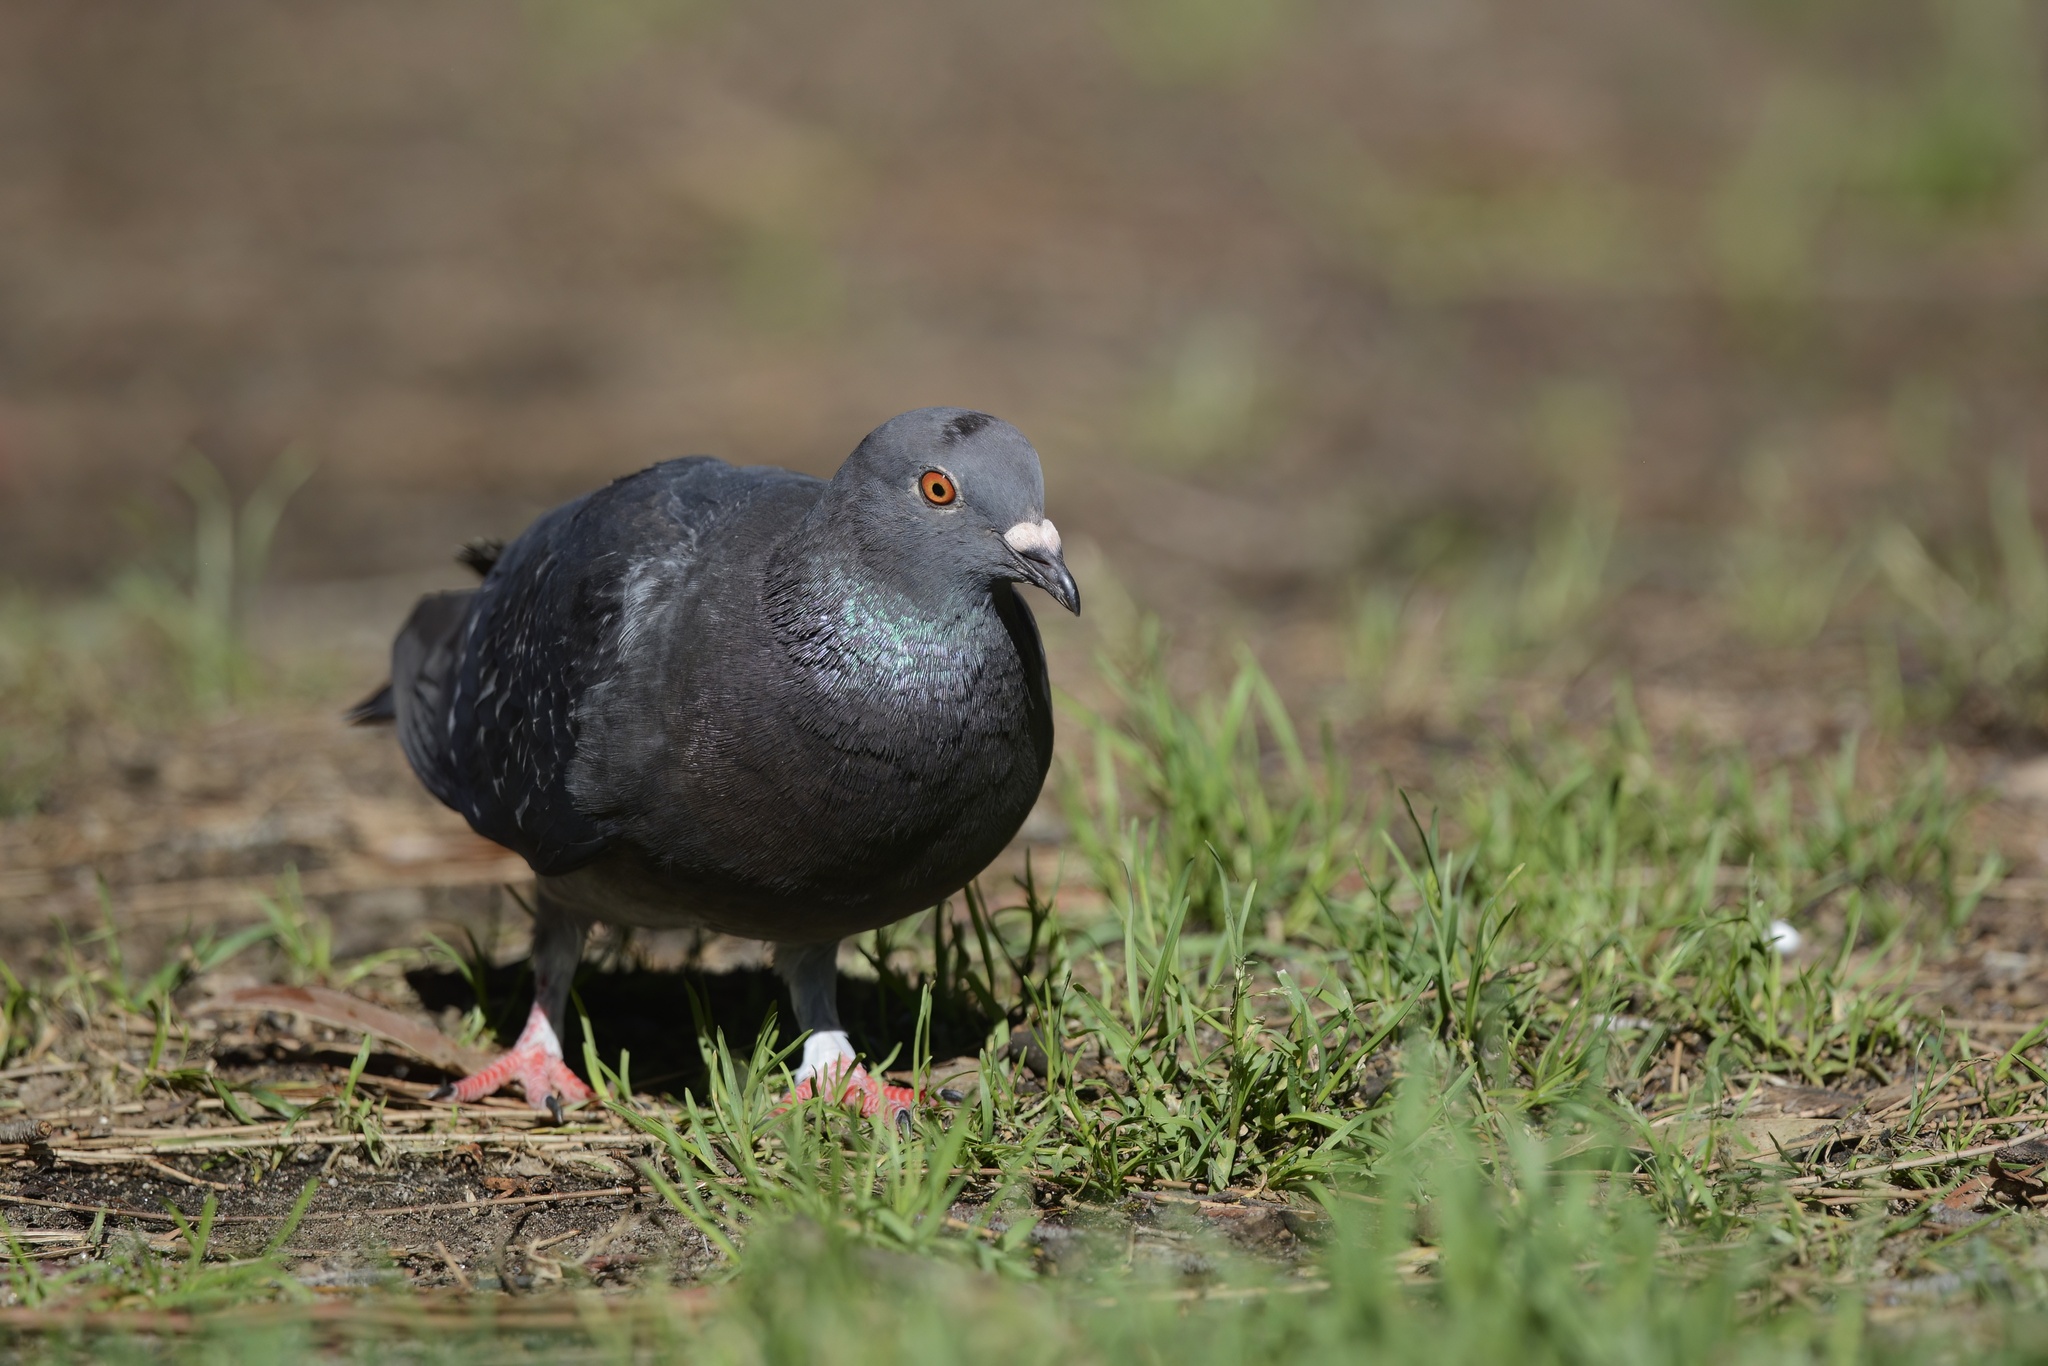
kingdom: Animalia
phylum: Chordata
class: Aves
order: Columbiformes
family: Columbidae
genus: Columba
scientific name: Columba livia
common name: Rock pigeon
